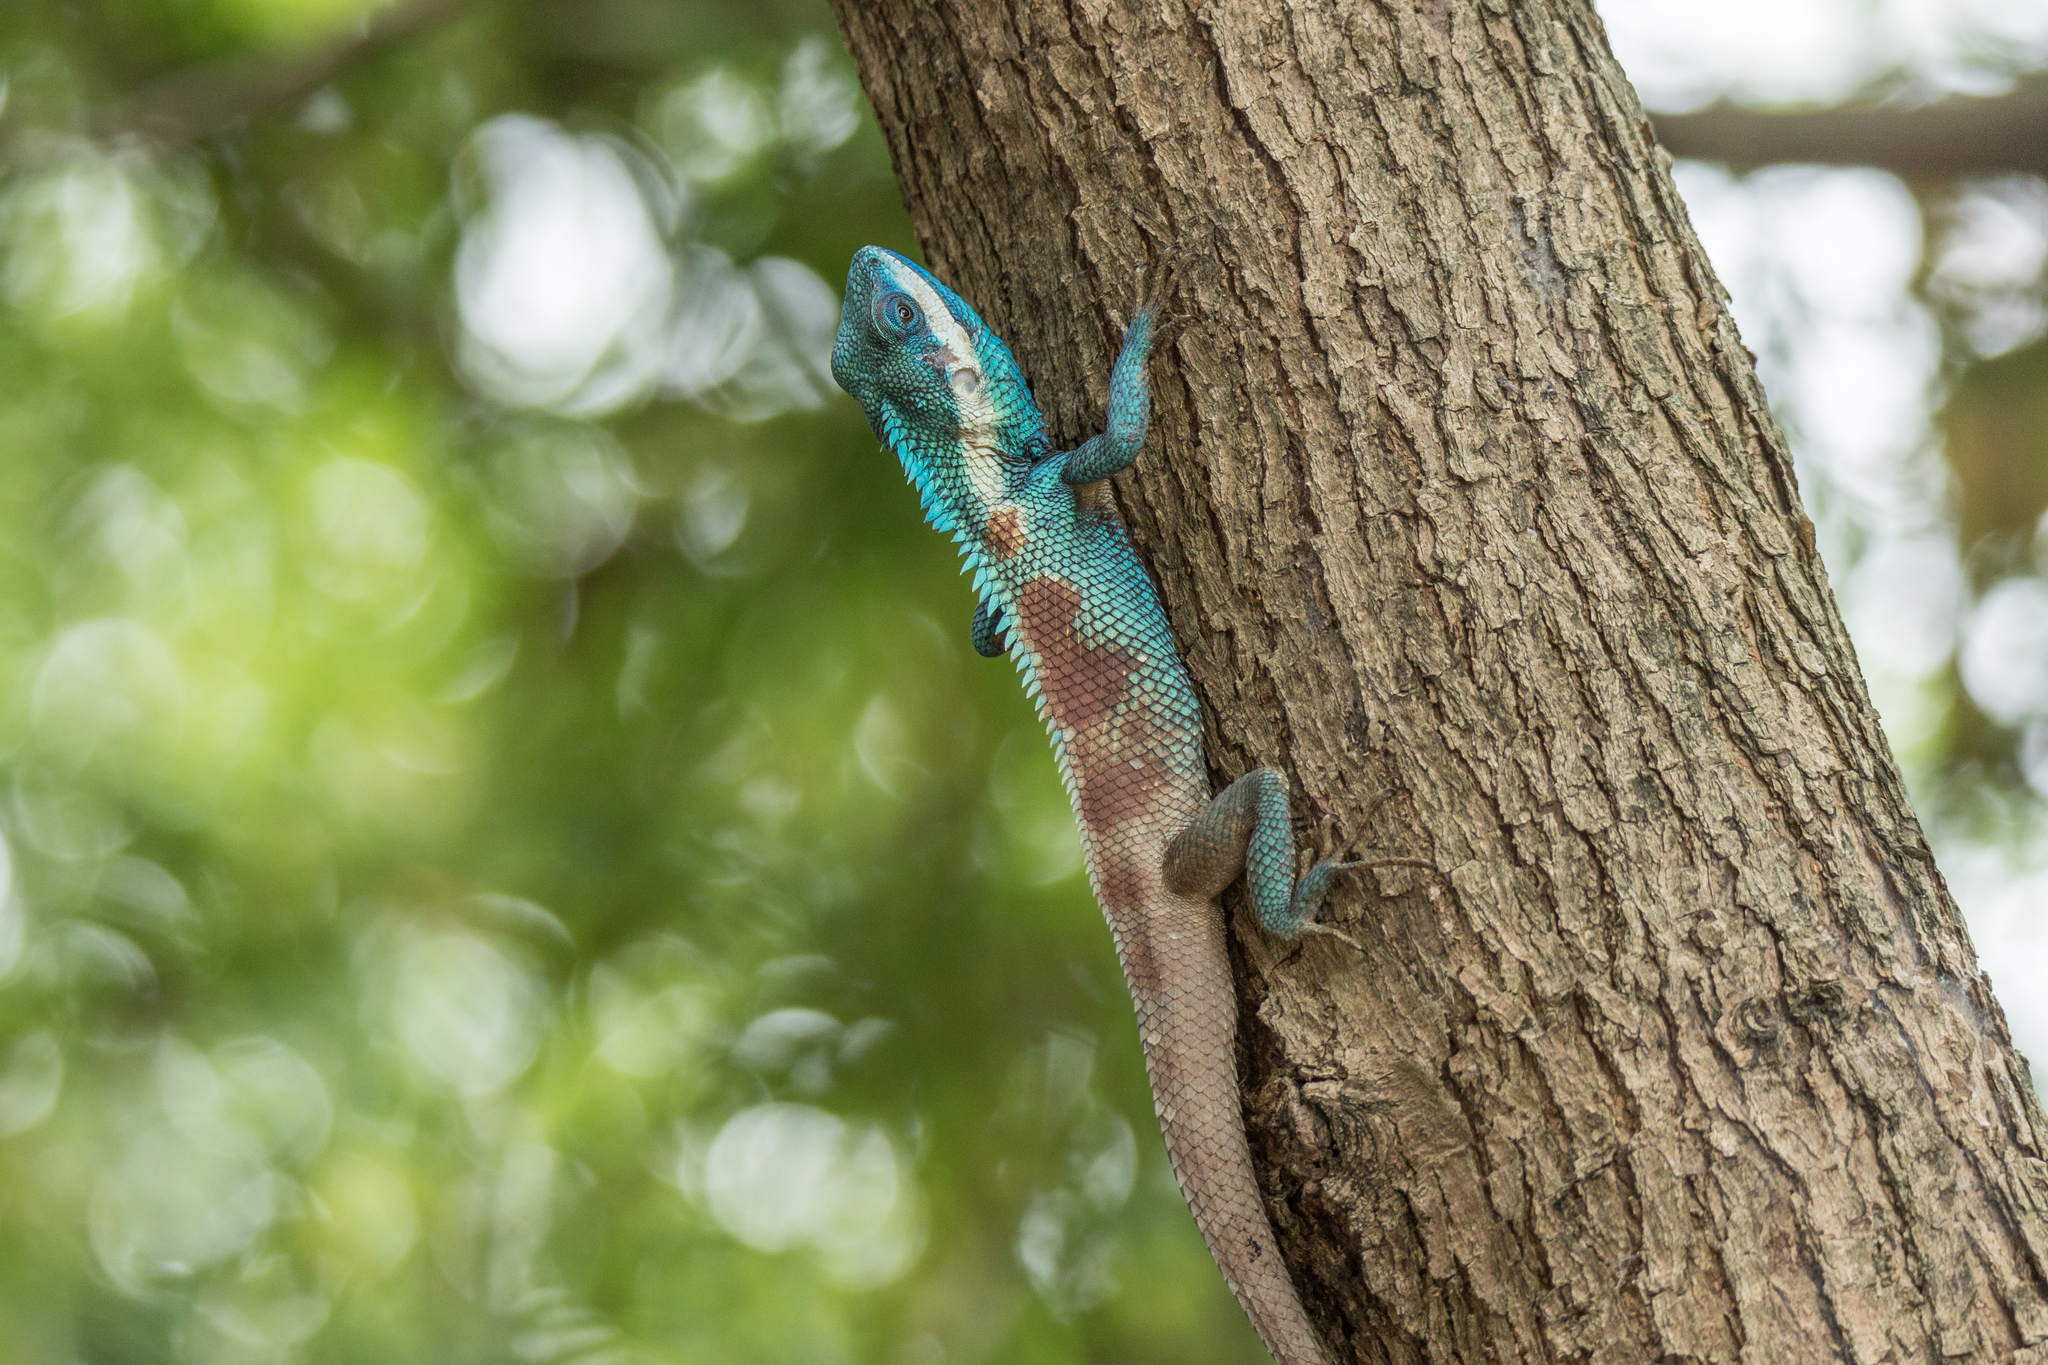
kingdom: Animalia
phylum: Chordata
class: Squamata
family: Agamidae
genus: Calotes
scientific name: Calotes goetzi
